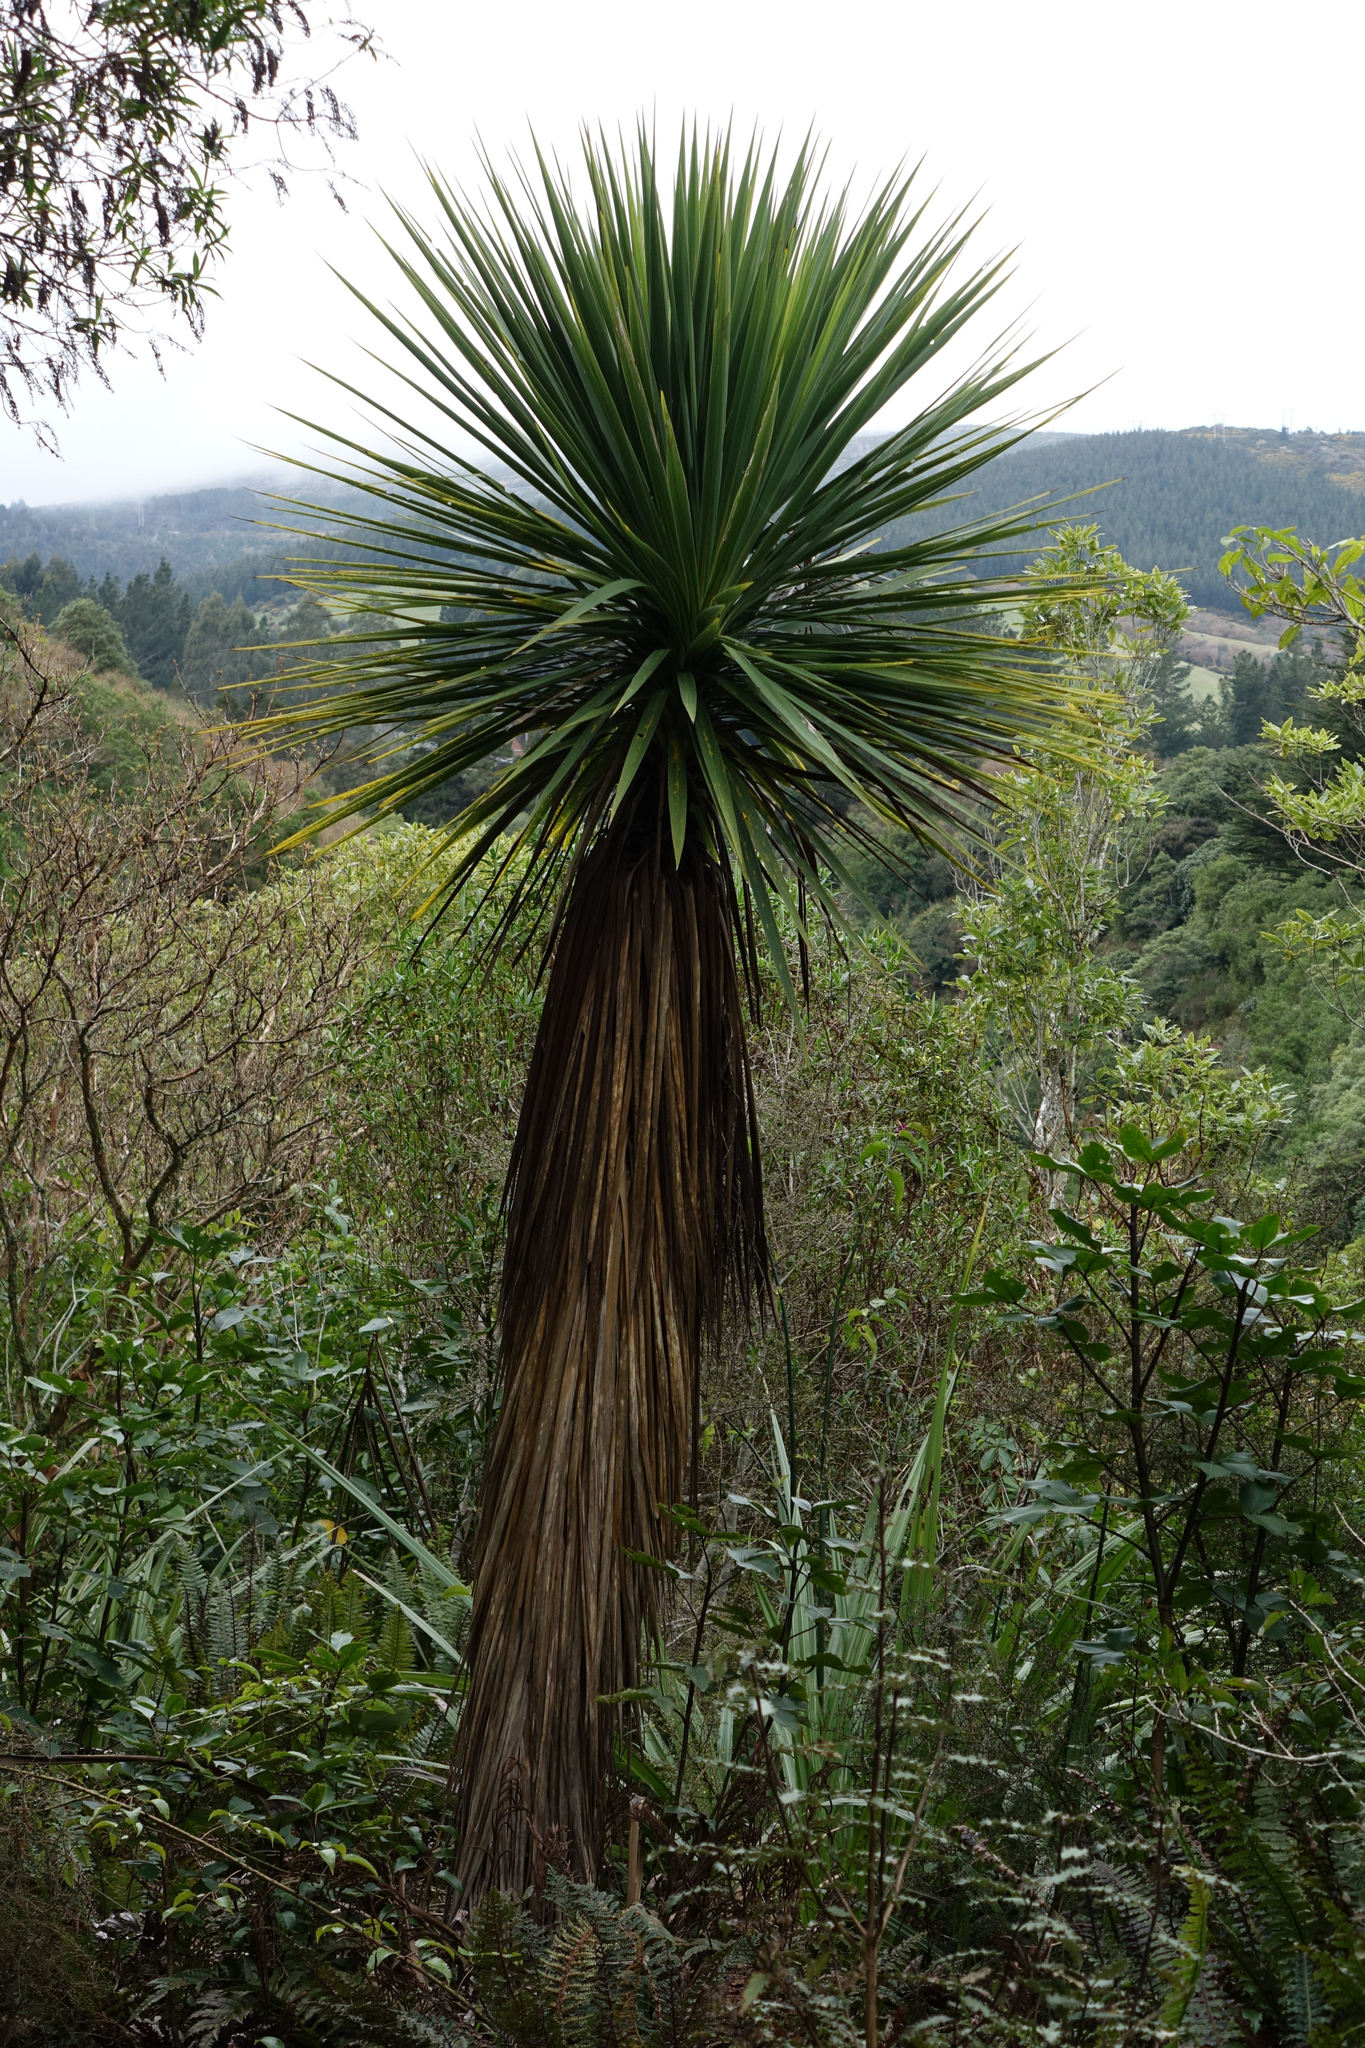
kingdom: Plantae
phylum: Tracheophyta
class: Liliopsida
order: Asparagales
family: Asparagaceae
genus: Cordyline
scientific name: Cordyline australis
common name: Cabbage-palm
